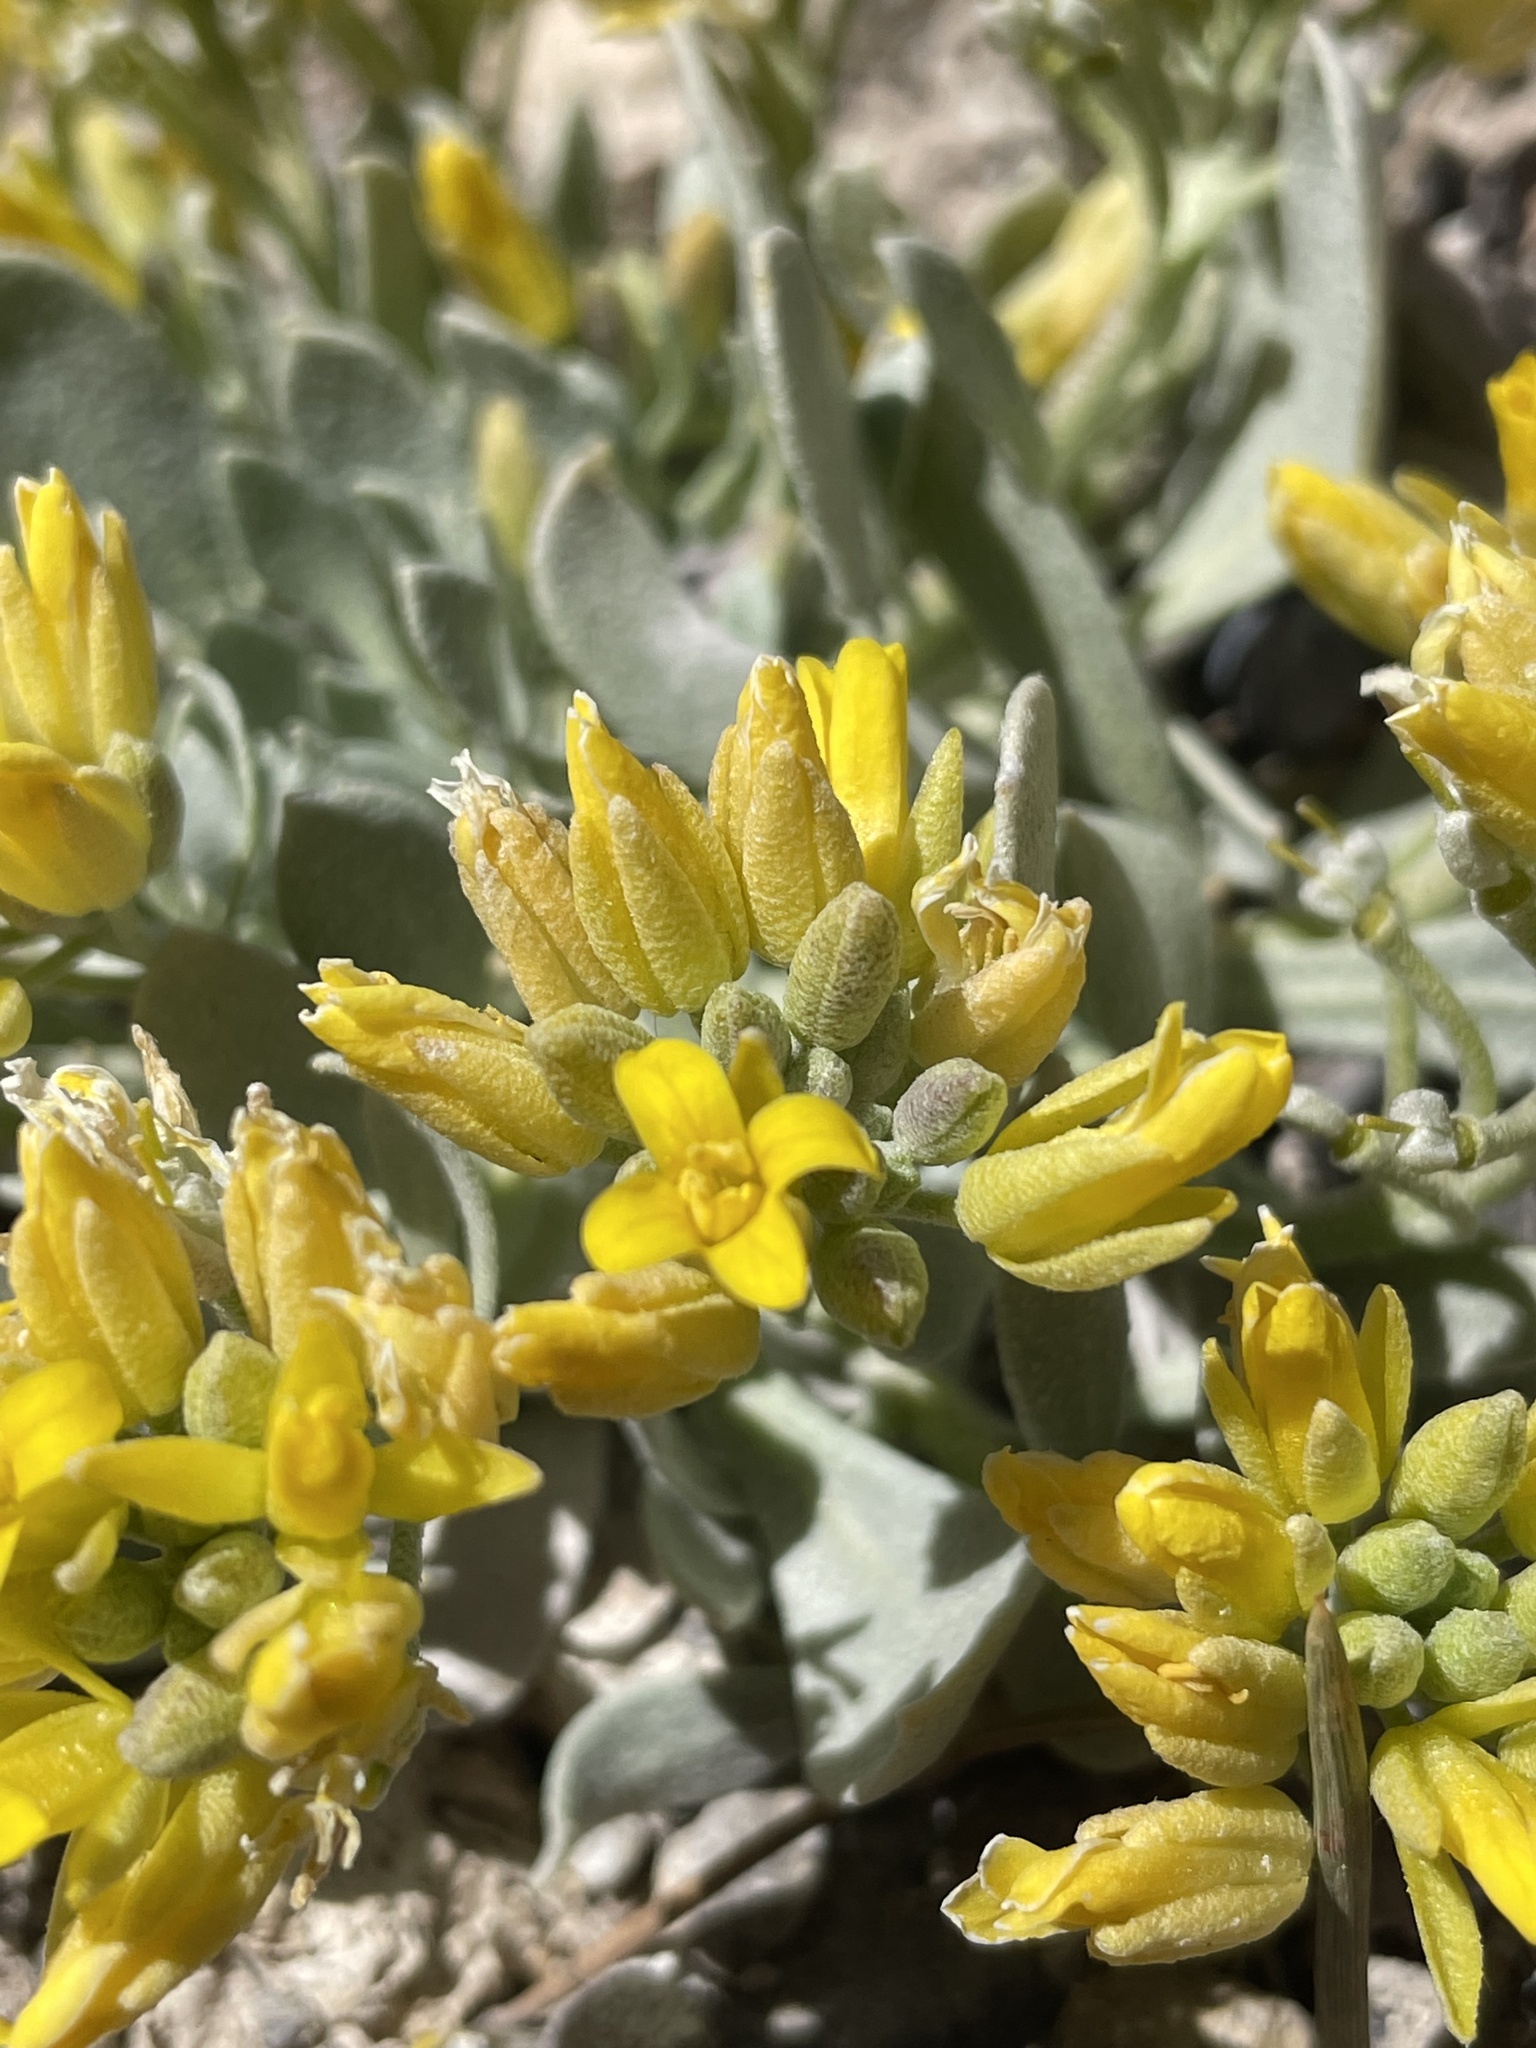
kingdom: Plantae
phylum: Tracheophyta
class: Magnoliopsida
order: Brassicales
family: Brassicaceae
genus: Physaria
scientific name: Physaria chambersii
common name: Chamber's twinpod
